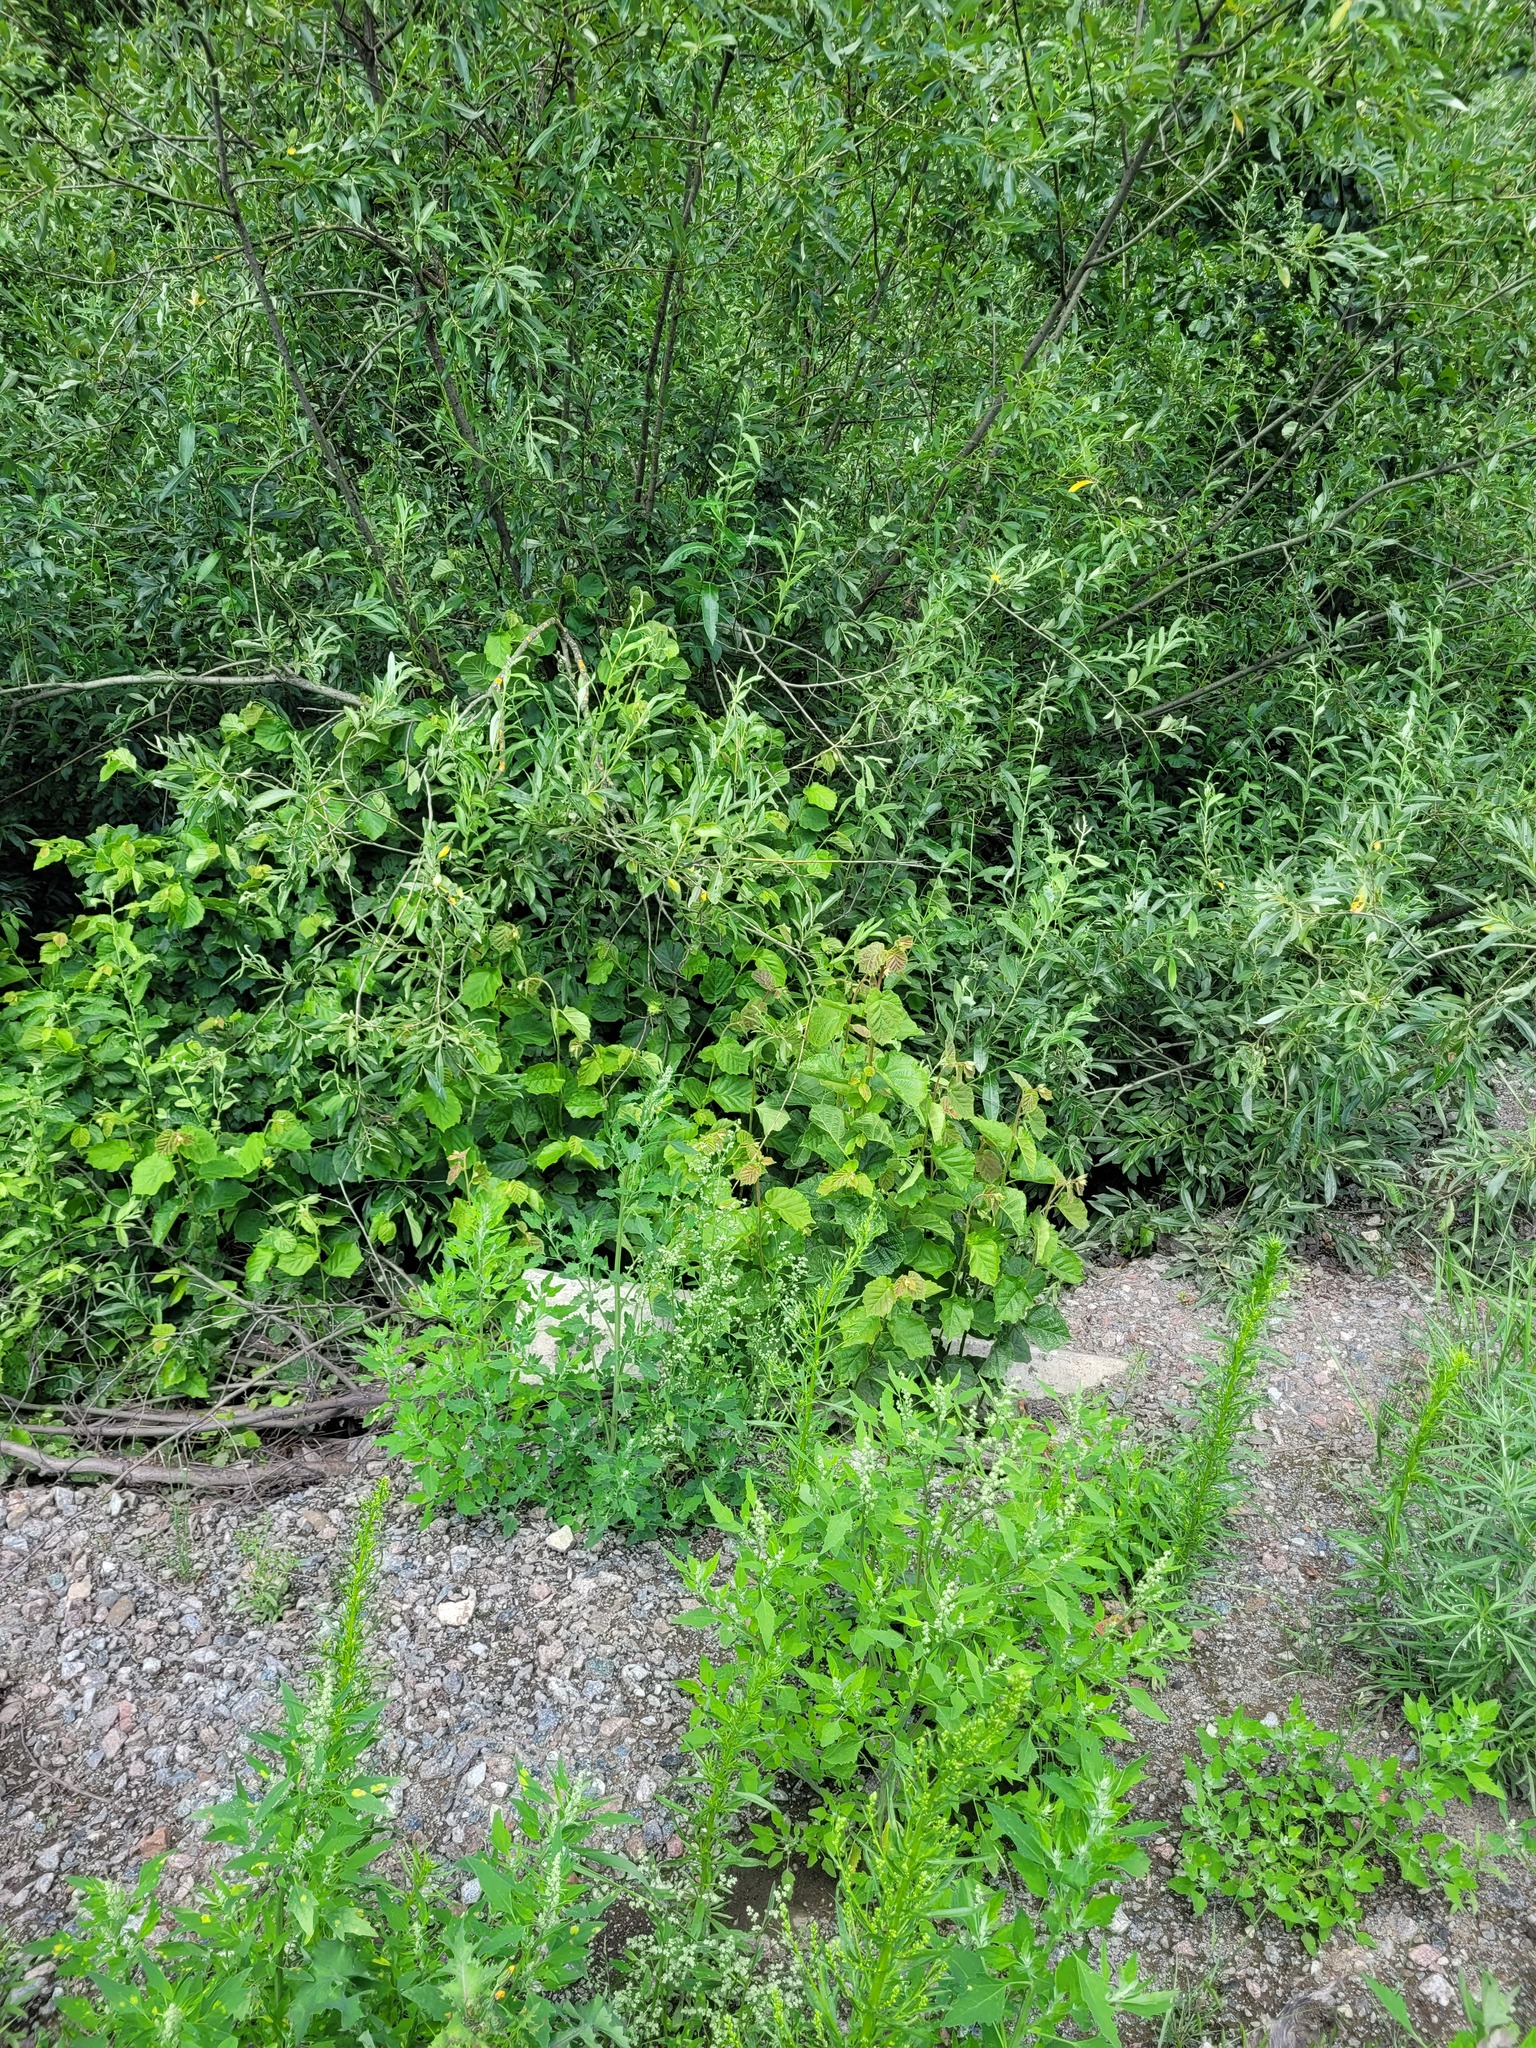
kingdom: Plantae
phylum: Tracheophyta
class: Magnoliopsida
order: Fagales
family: Betulaceae
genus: Corylus
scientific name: Corylus avellana
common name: European hazel
